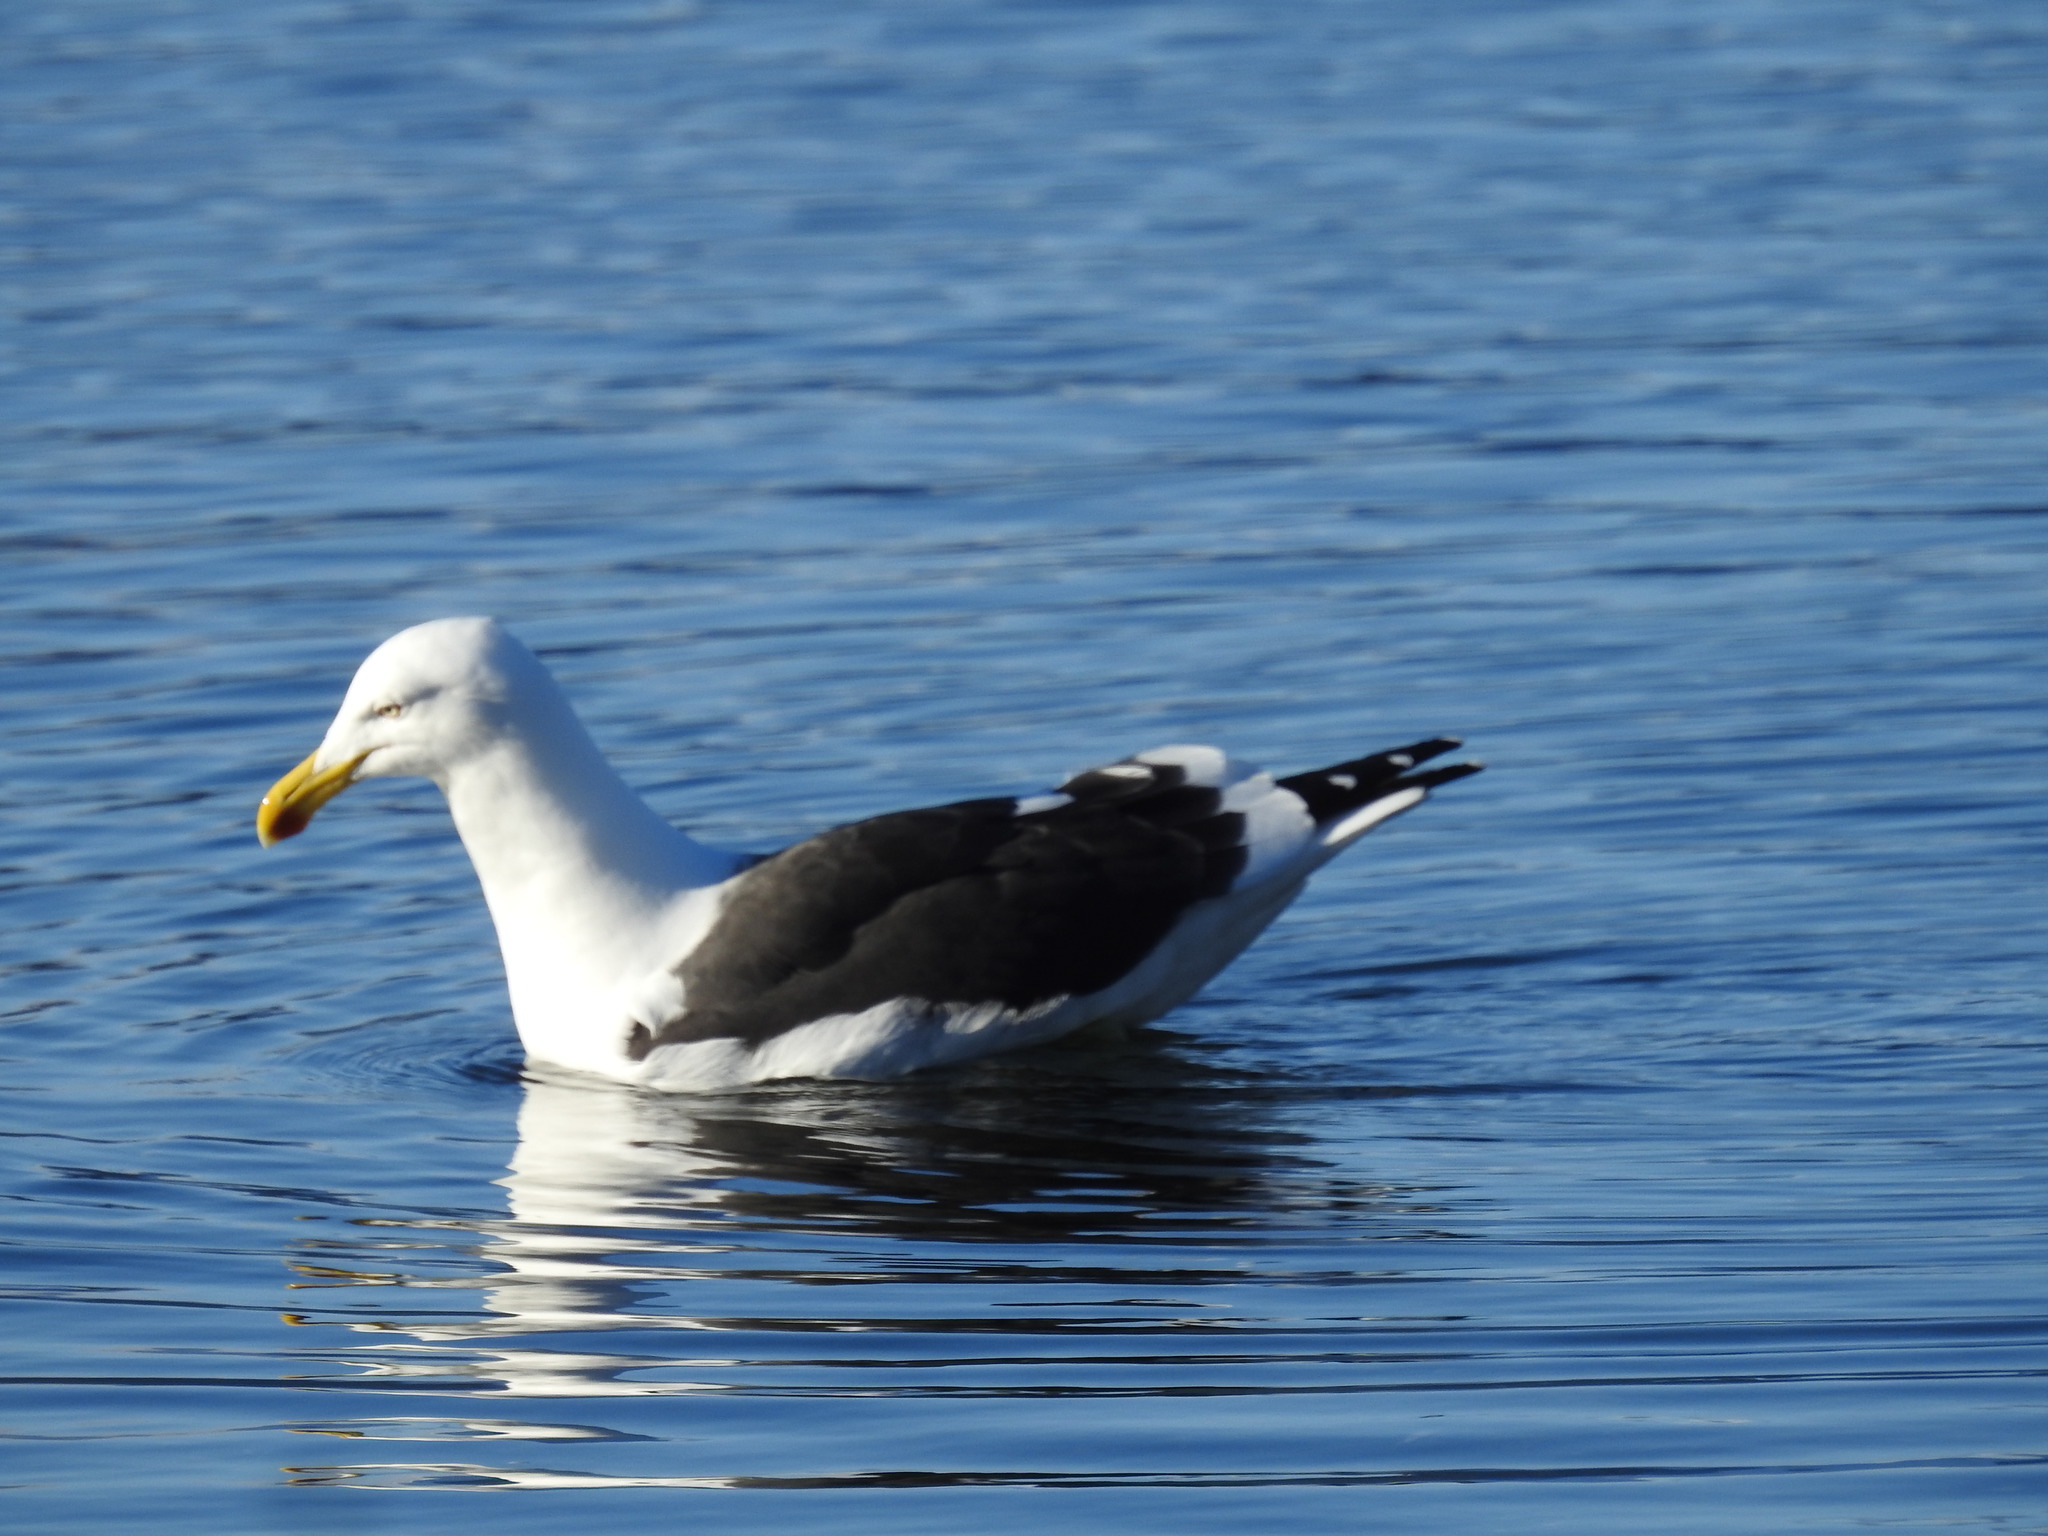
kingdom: Animalia
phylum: Chordata
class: Aves
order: Charadriiformes
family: Laridae
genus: Larus
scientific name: Larus dominicanus
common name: Kelp gull
